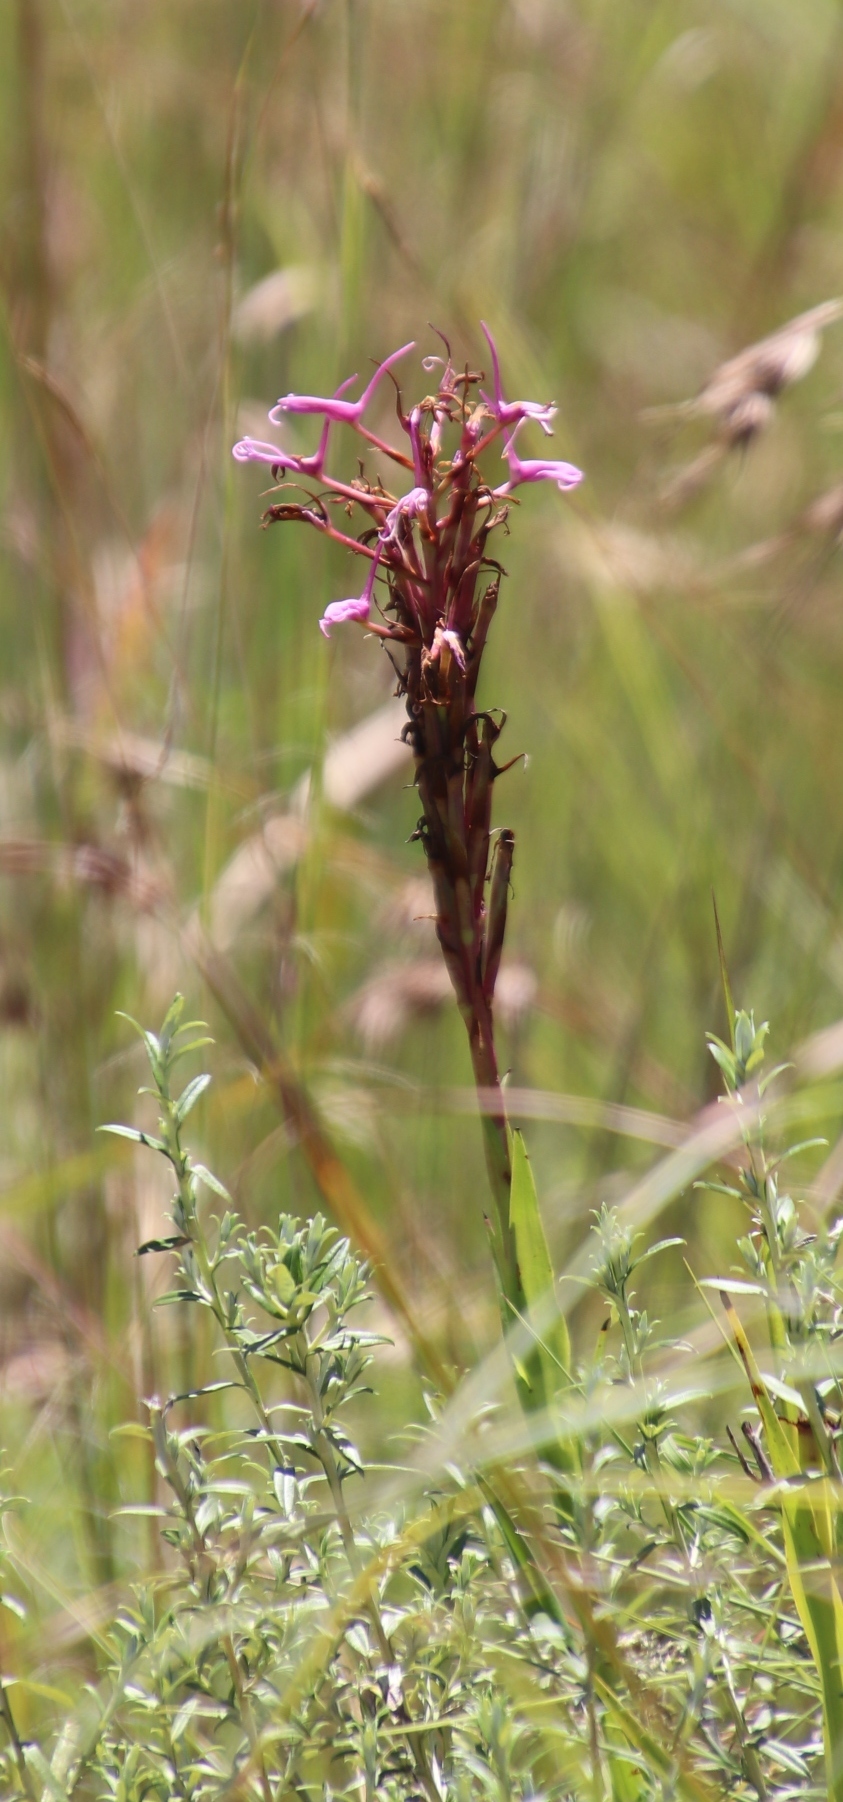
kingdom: Plantae
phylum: Tracheophyta
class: Liliopsida
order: Asparagales
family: Orchidaceae
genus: Disa
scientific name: Disa nervosa
